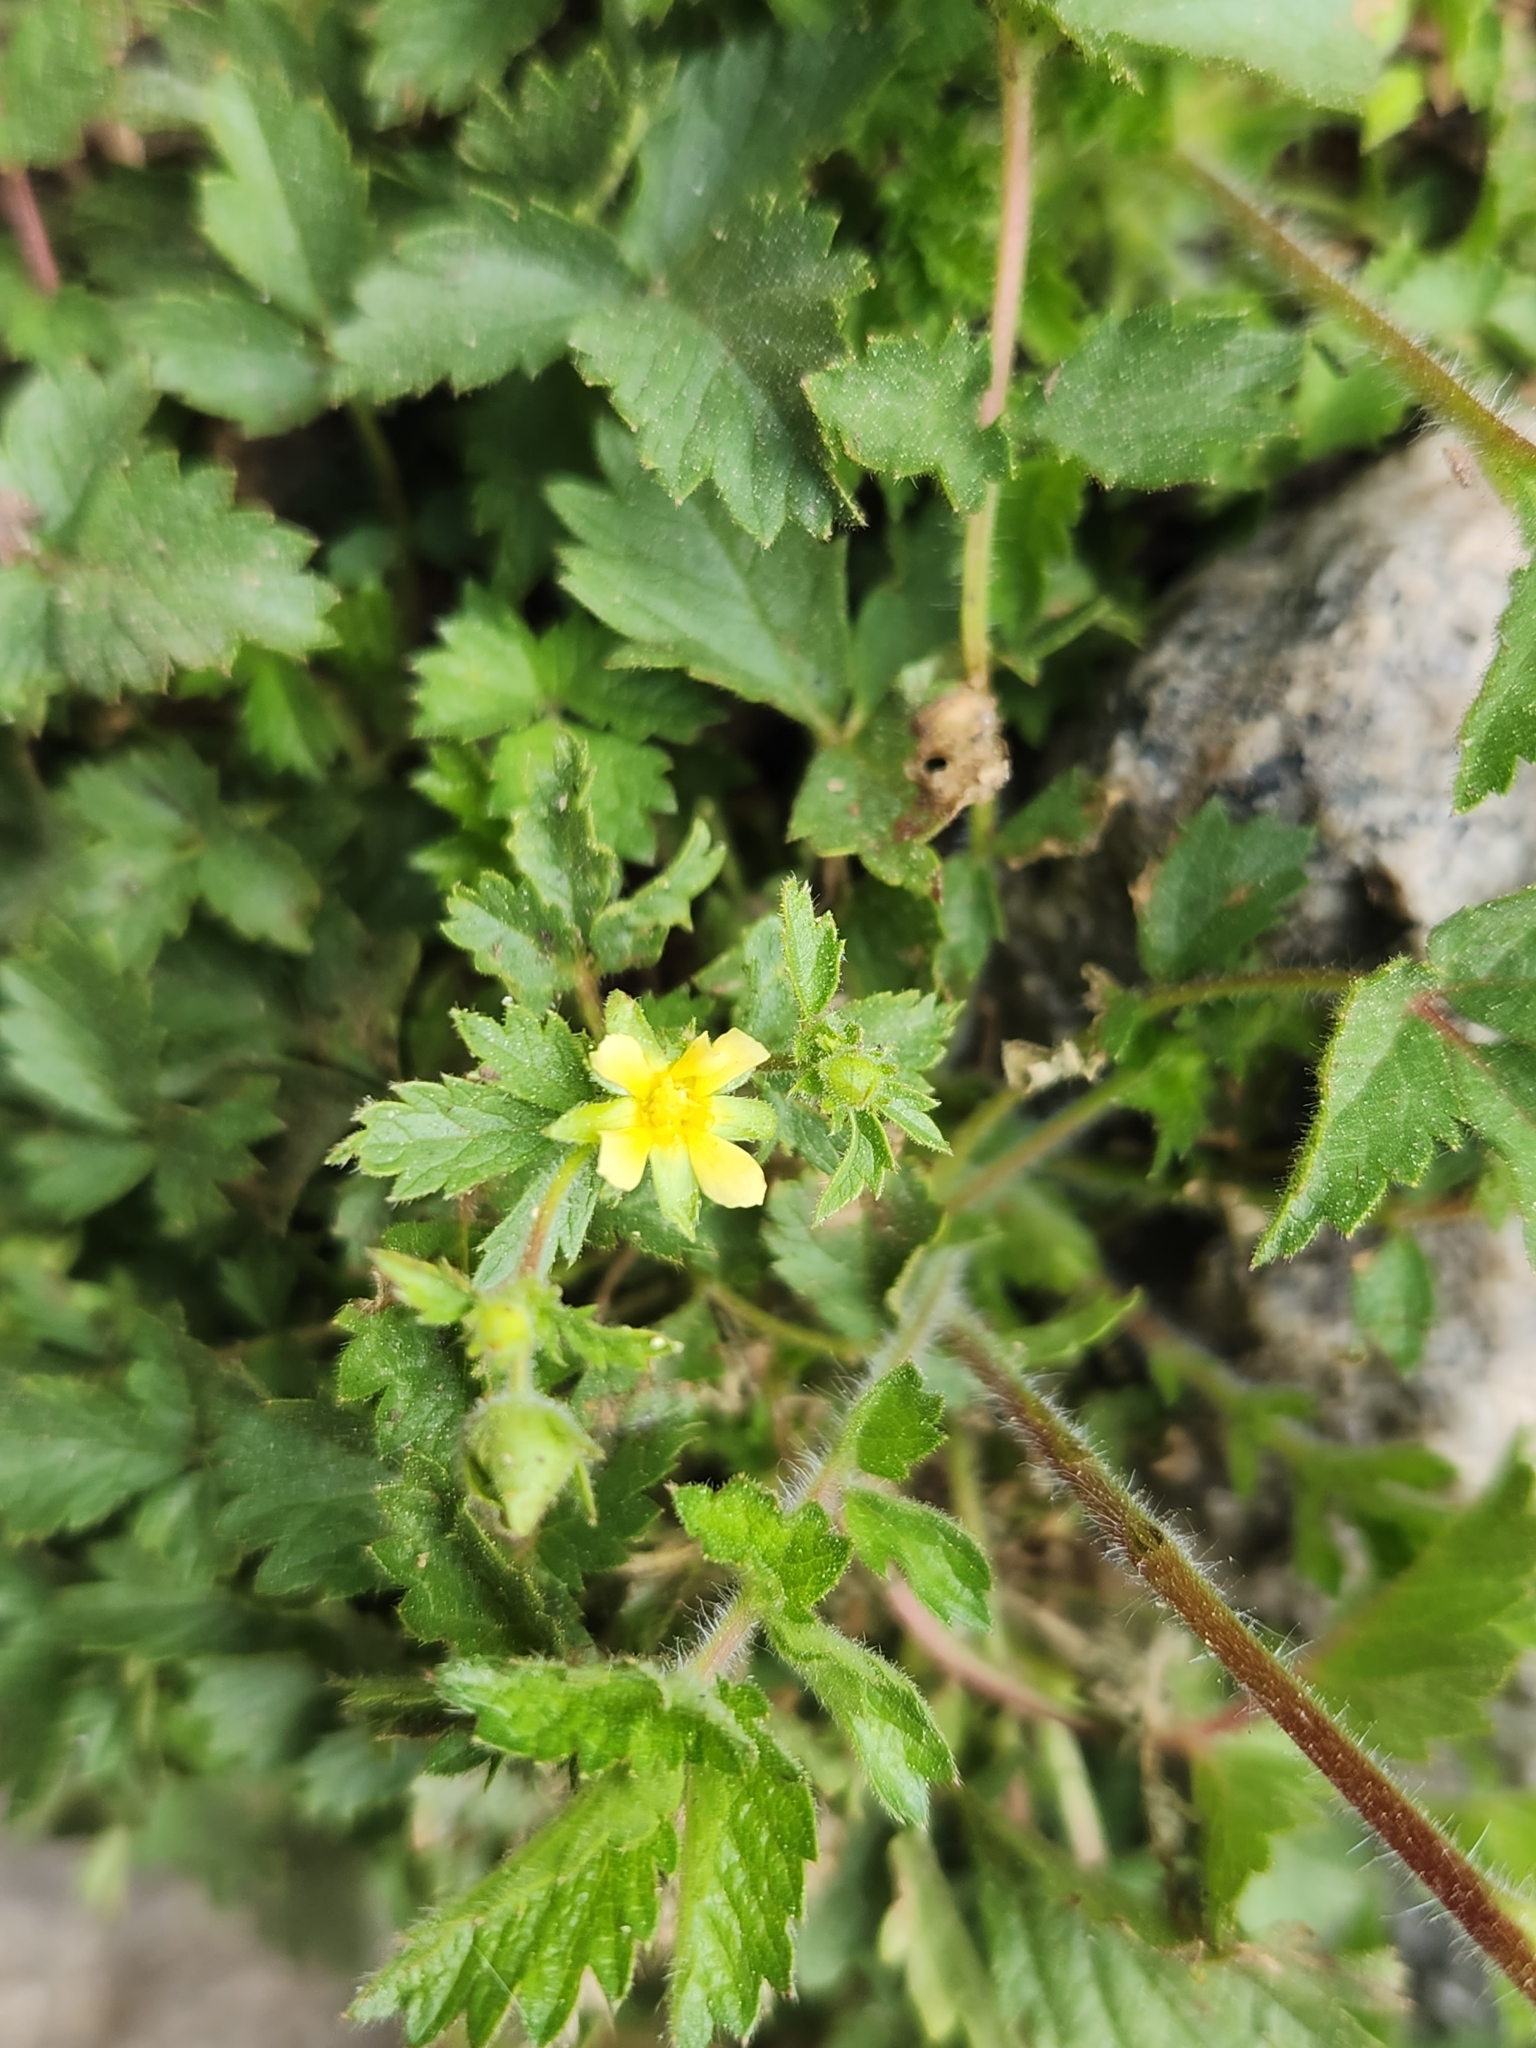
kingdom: Plantae
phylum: Tracheophyta
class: Magnoliopsida
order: Rosales
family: Rosaceae
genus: Drymocallis
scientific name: Drymocallis glandulosa
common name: Sticky cinquefoil
